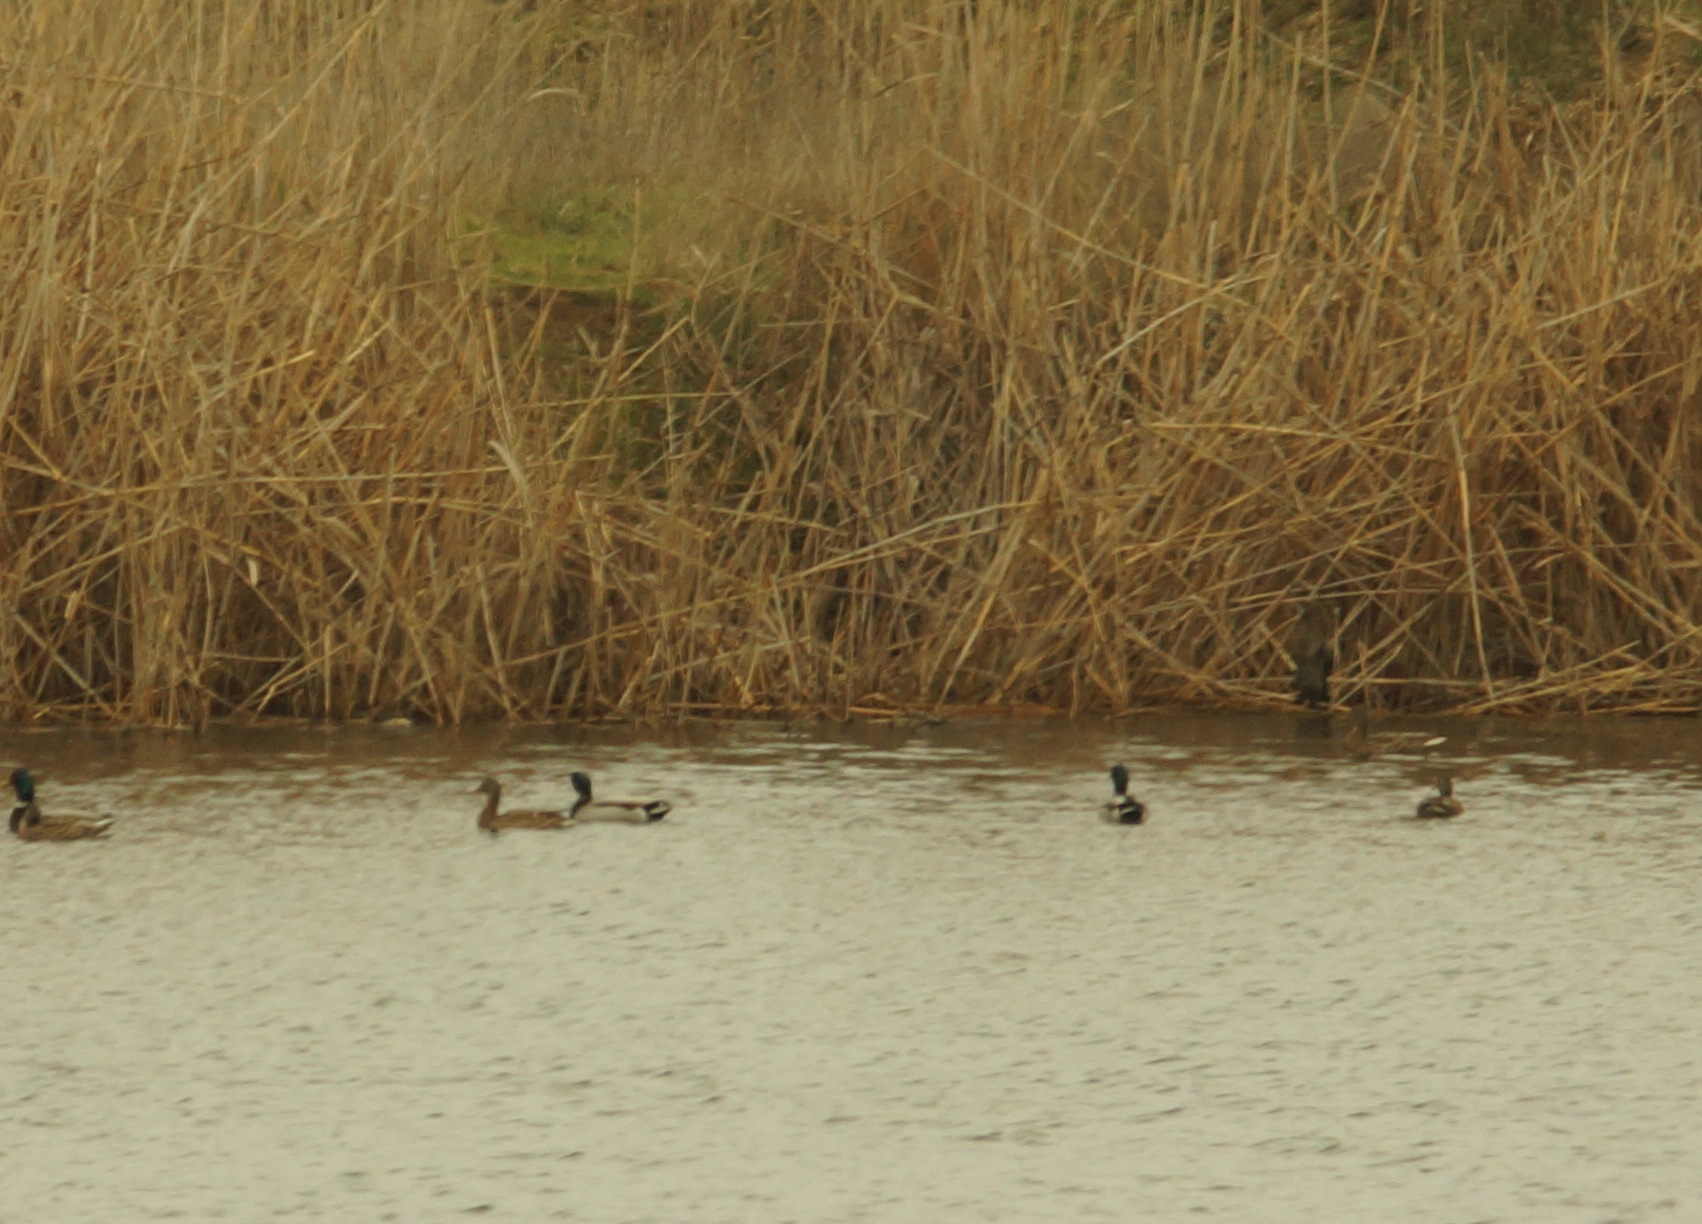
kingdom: Animalia
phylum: Chordata
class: Aves
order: Anseriformes
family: Anatidae
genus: Anas
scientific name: Anas platyrhynchos
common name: Mallard
